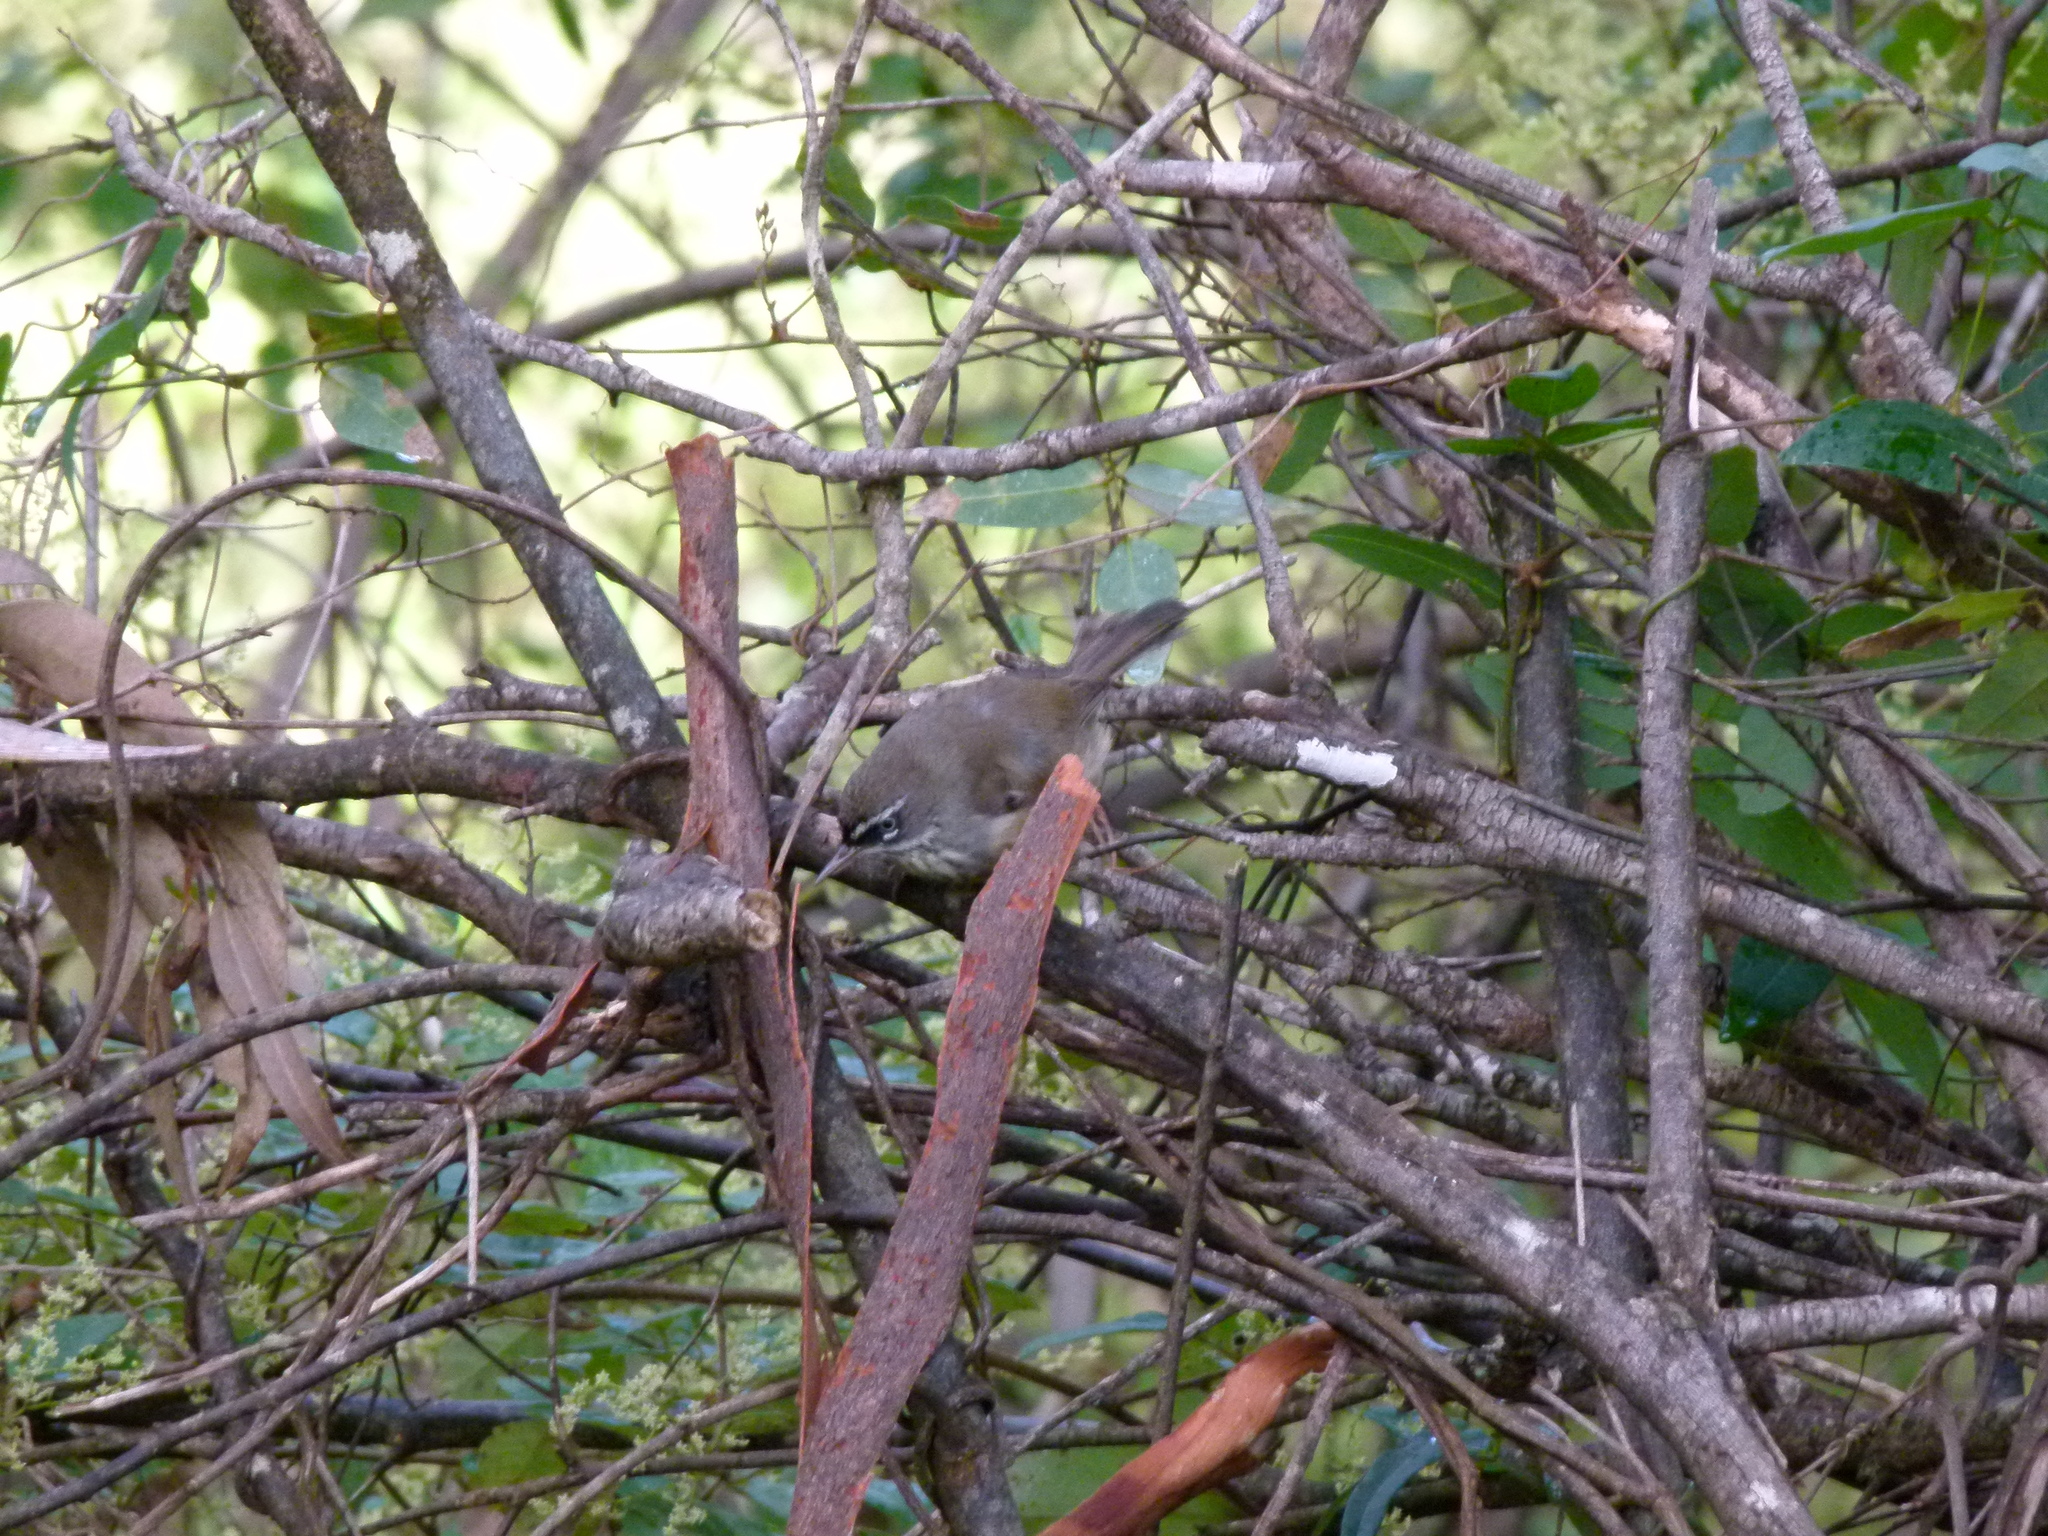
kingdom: Animalia
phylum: Chordata
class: Aves
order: Passeriformes
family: Acanthizidae
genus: Sericornis
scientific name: Sericornis maculatus
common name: Spotted scrubwren
